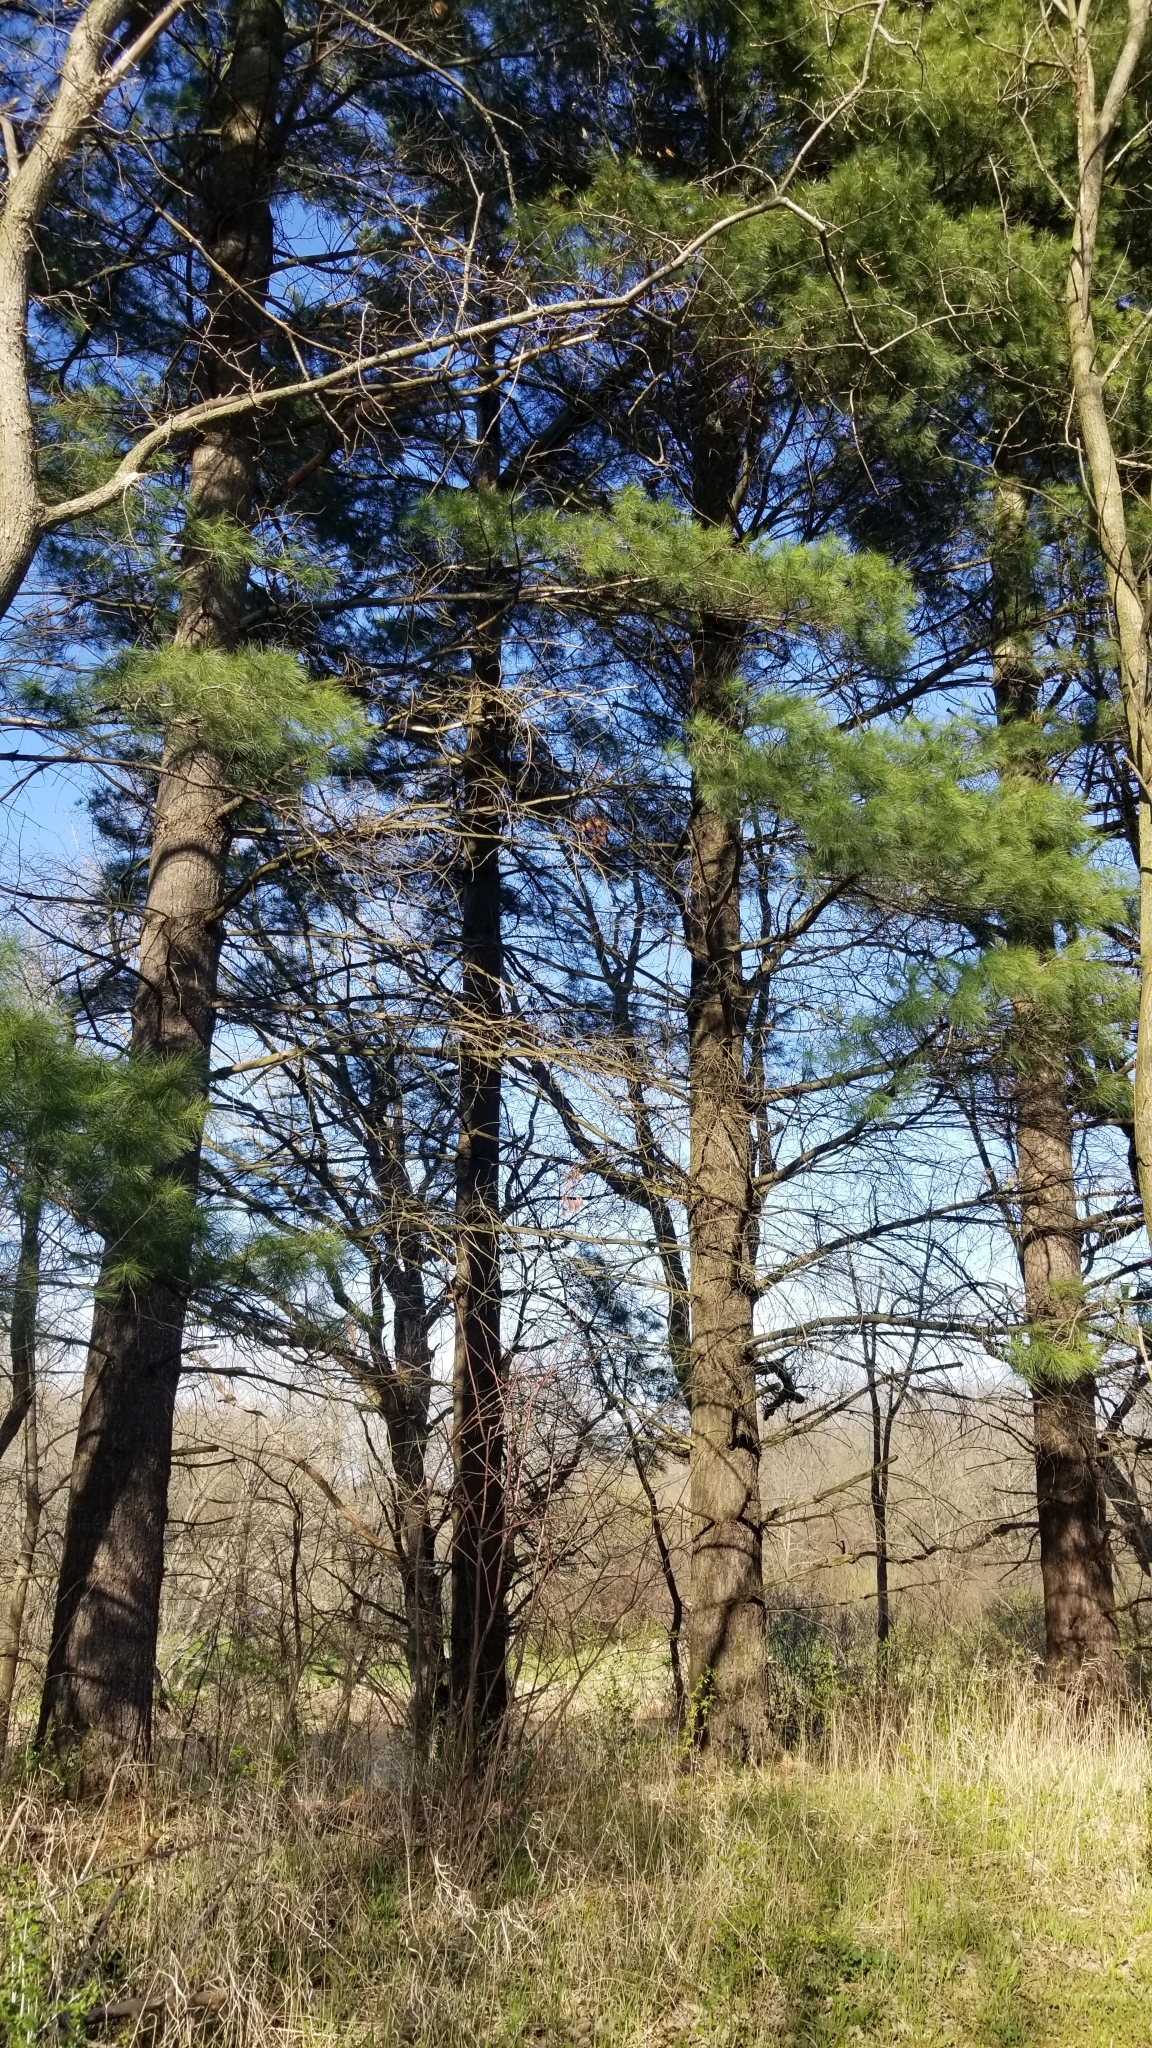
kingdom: Plantae
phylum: Tracheophyta
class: Pinopsida
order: Pinales
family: Pinaceae
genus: Pinus
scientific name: Pinus strobus
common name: Weymouth pine
